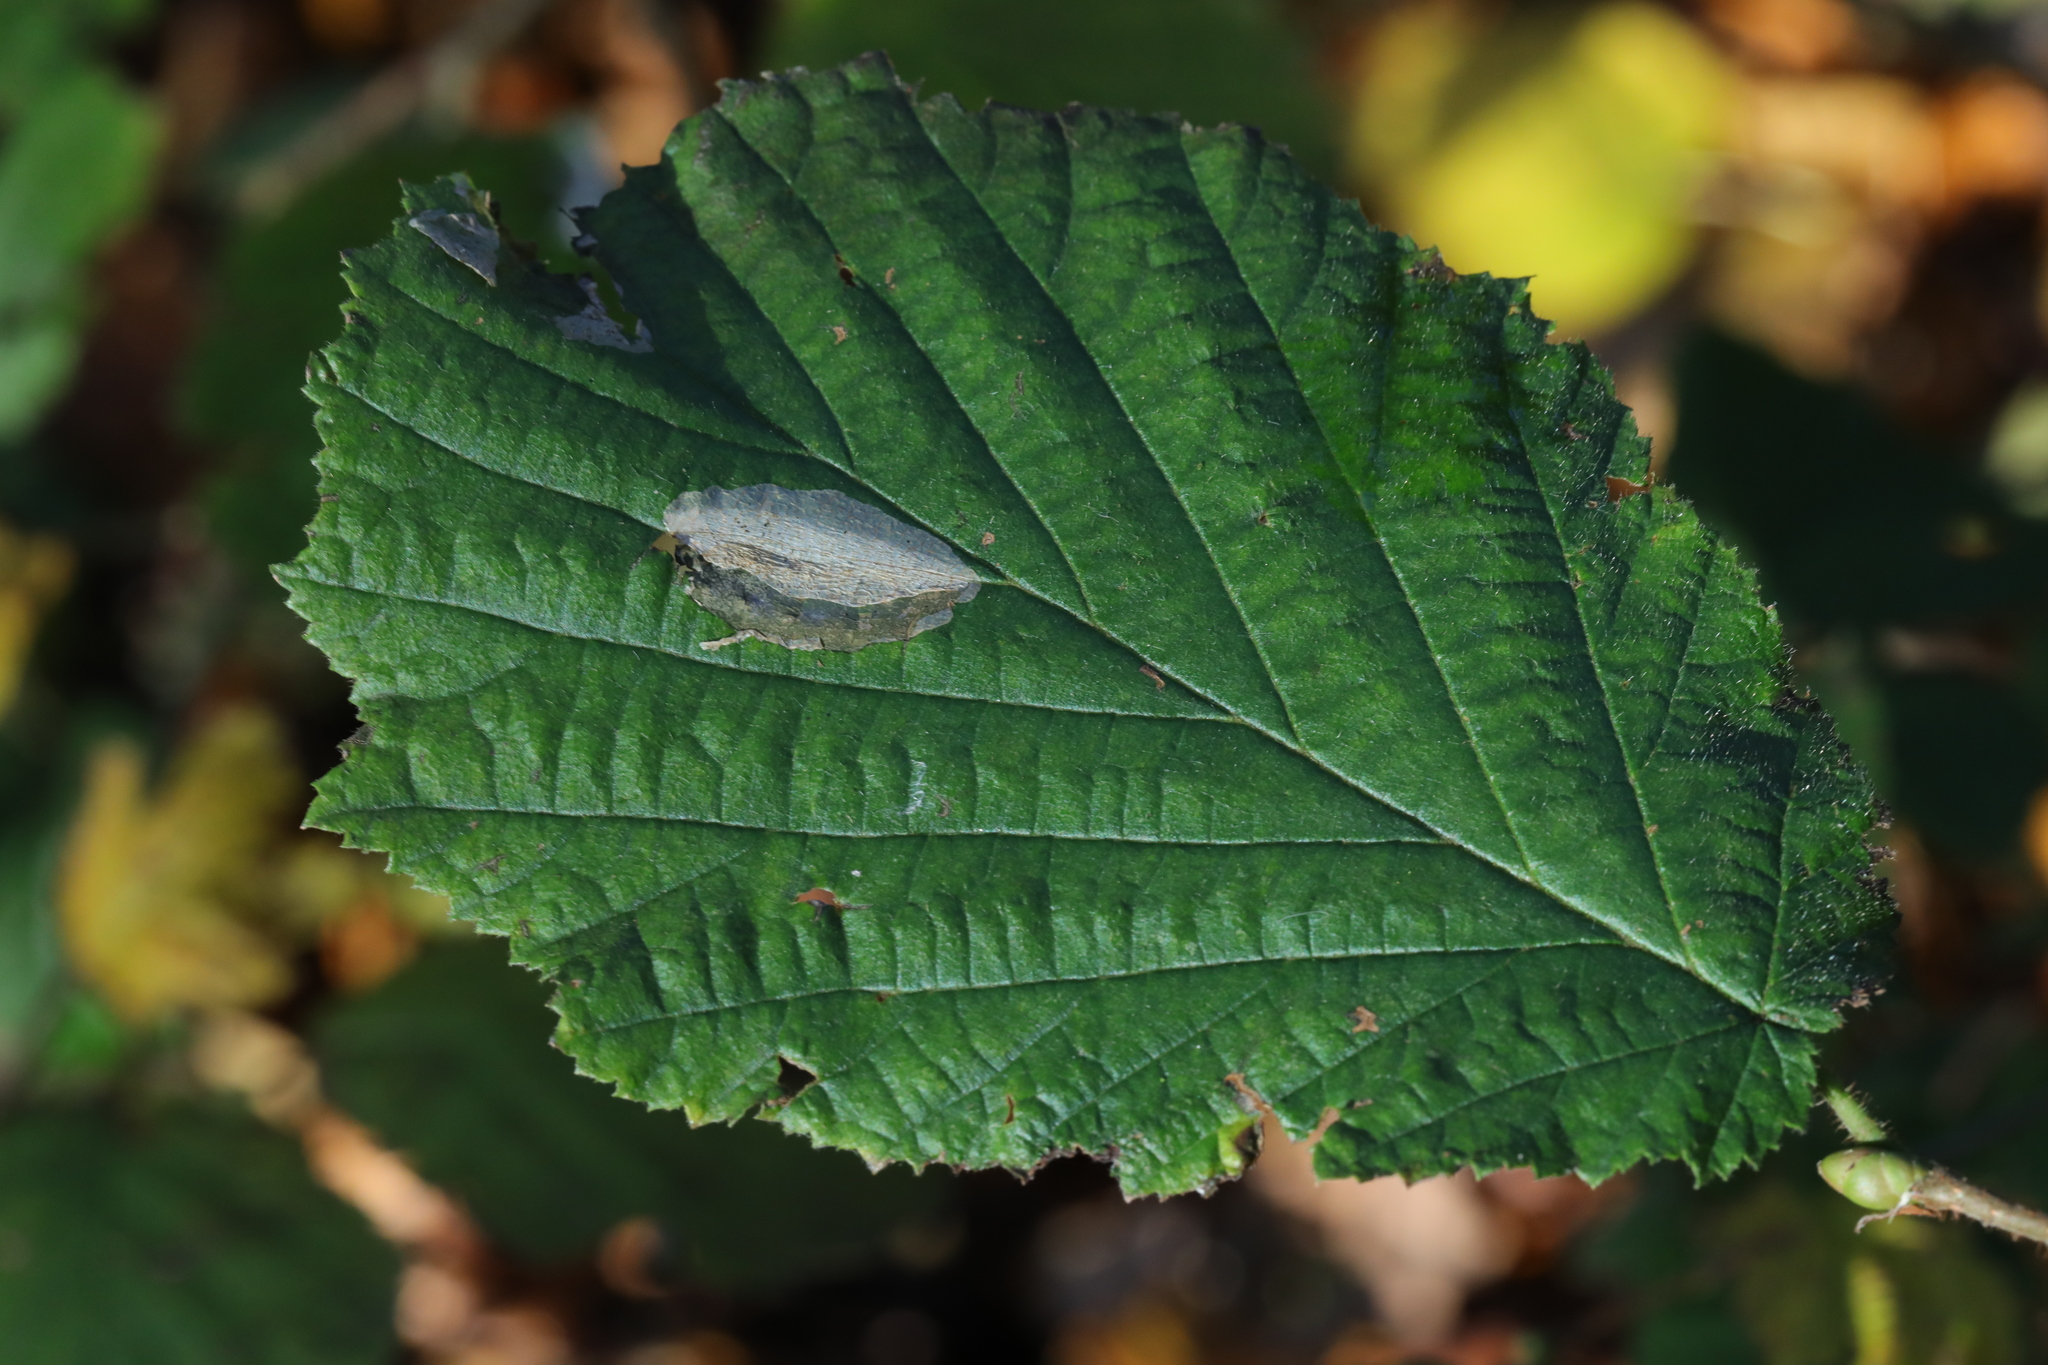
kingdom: Animalia
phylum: Arthropoda
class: Insecta
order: Lepidoptera
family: Gracillariidae
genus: Phyllonorycter
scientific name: Phyllonorycter coryli
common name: Nut-leaf blister moth
